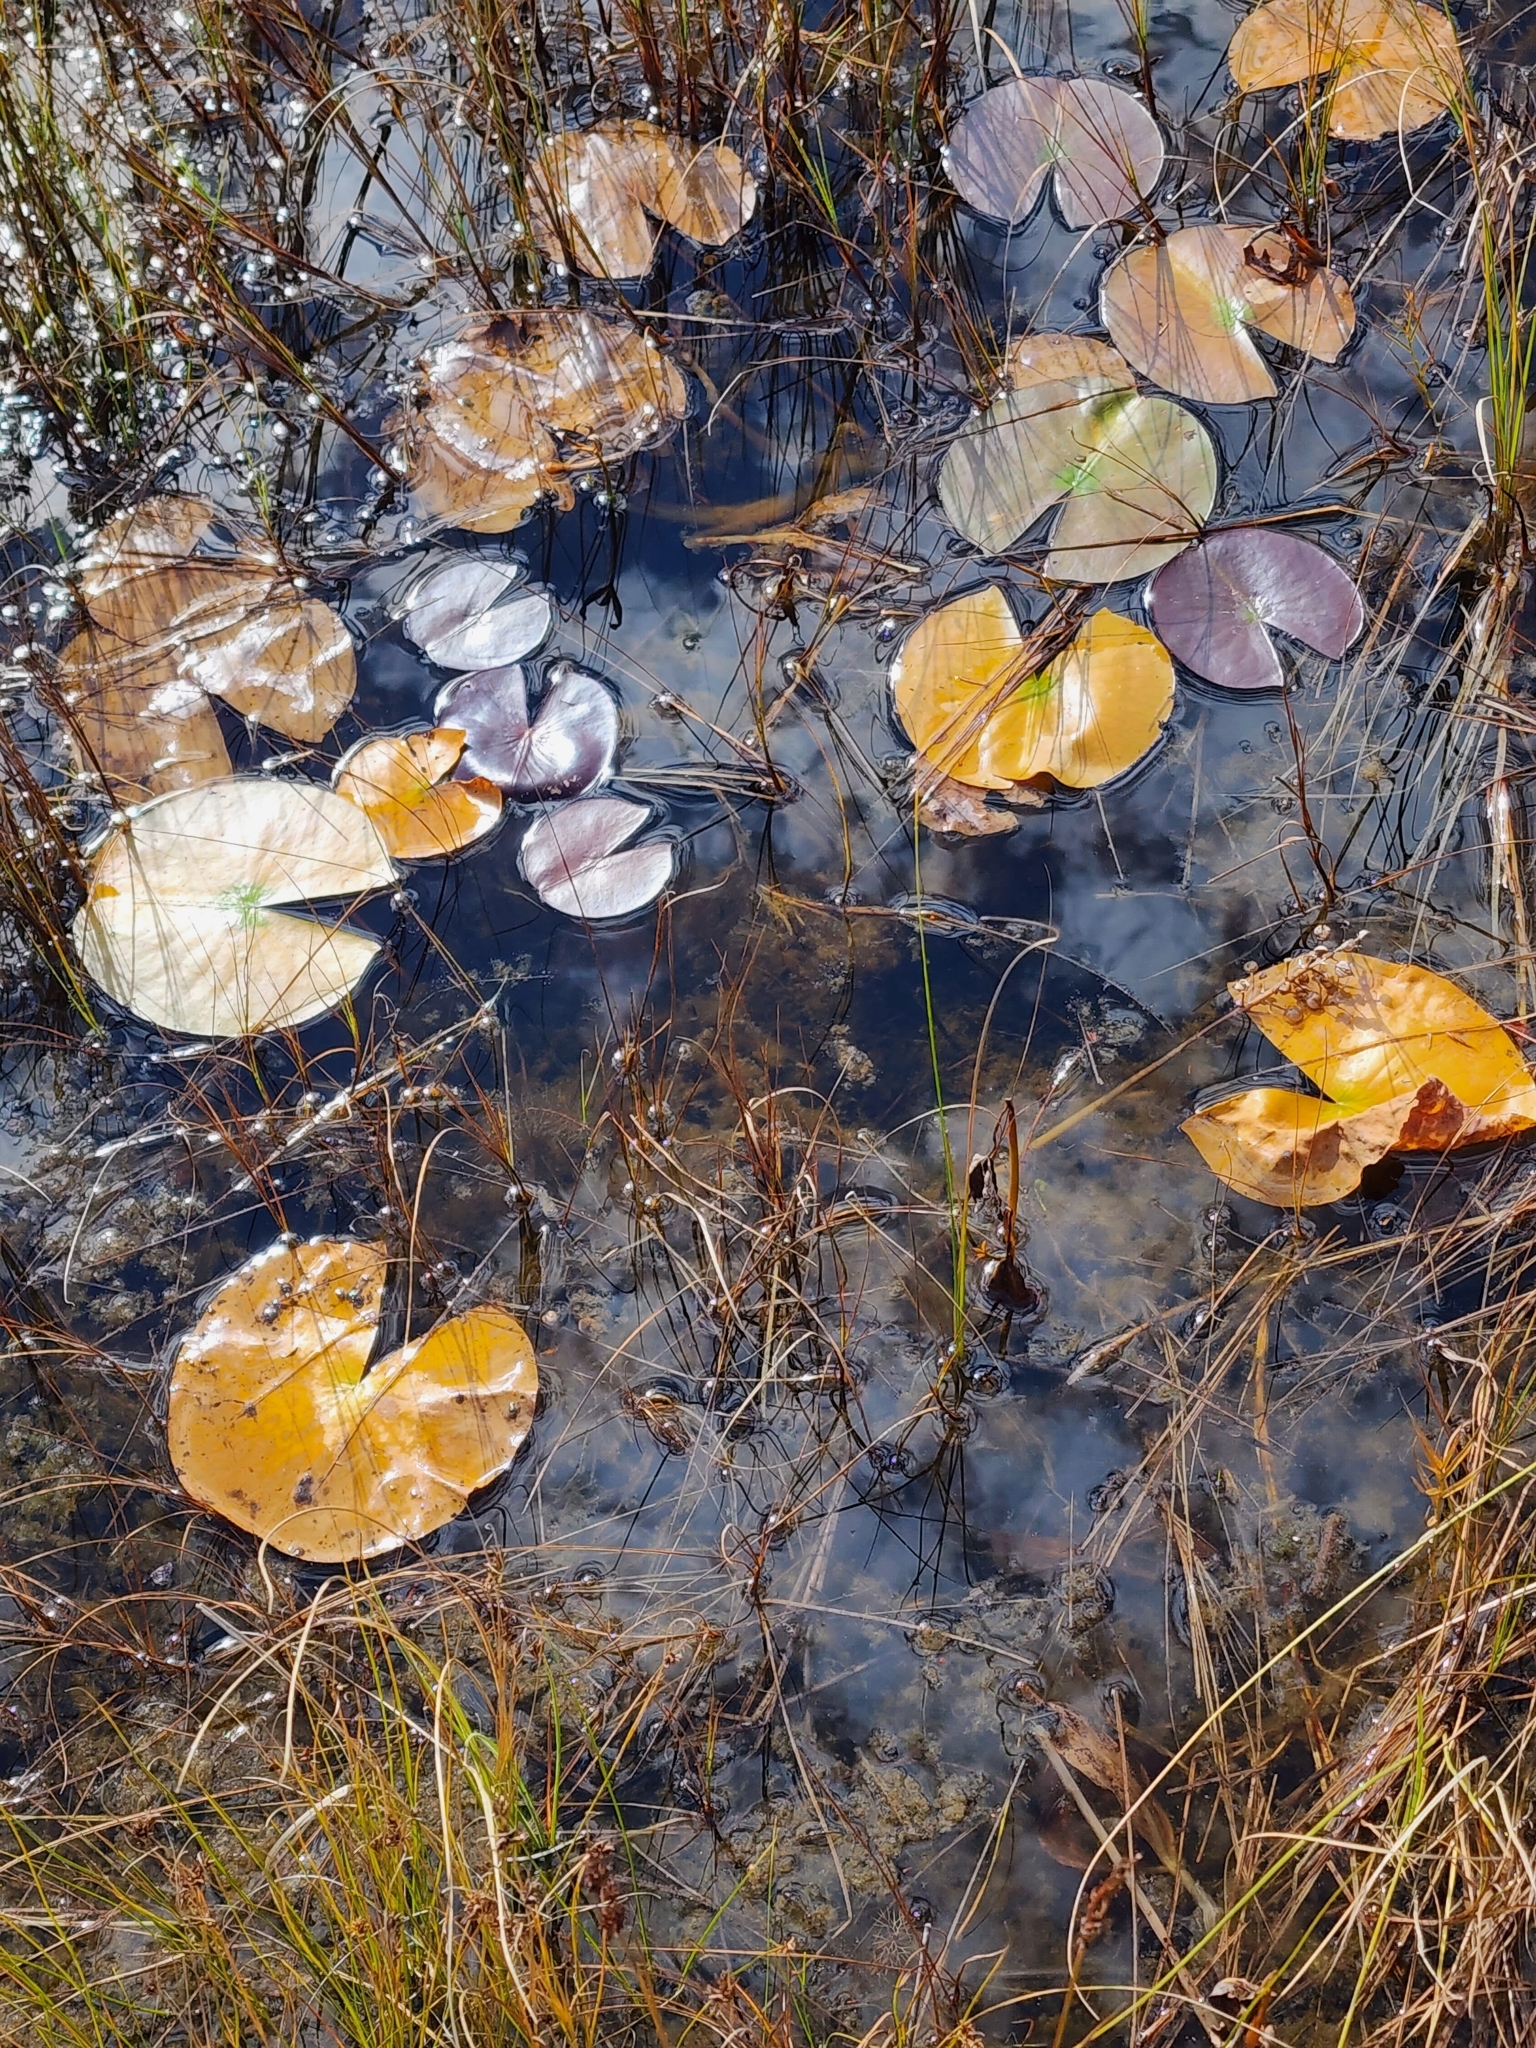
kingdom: Plantae
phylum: Tracheophyta
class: Magnoliopsida
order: Nymphaeales
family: Nymphaeaceae
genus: Nymphaea
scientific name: Nymphaea odorata
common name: Fragrant water-lily
